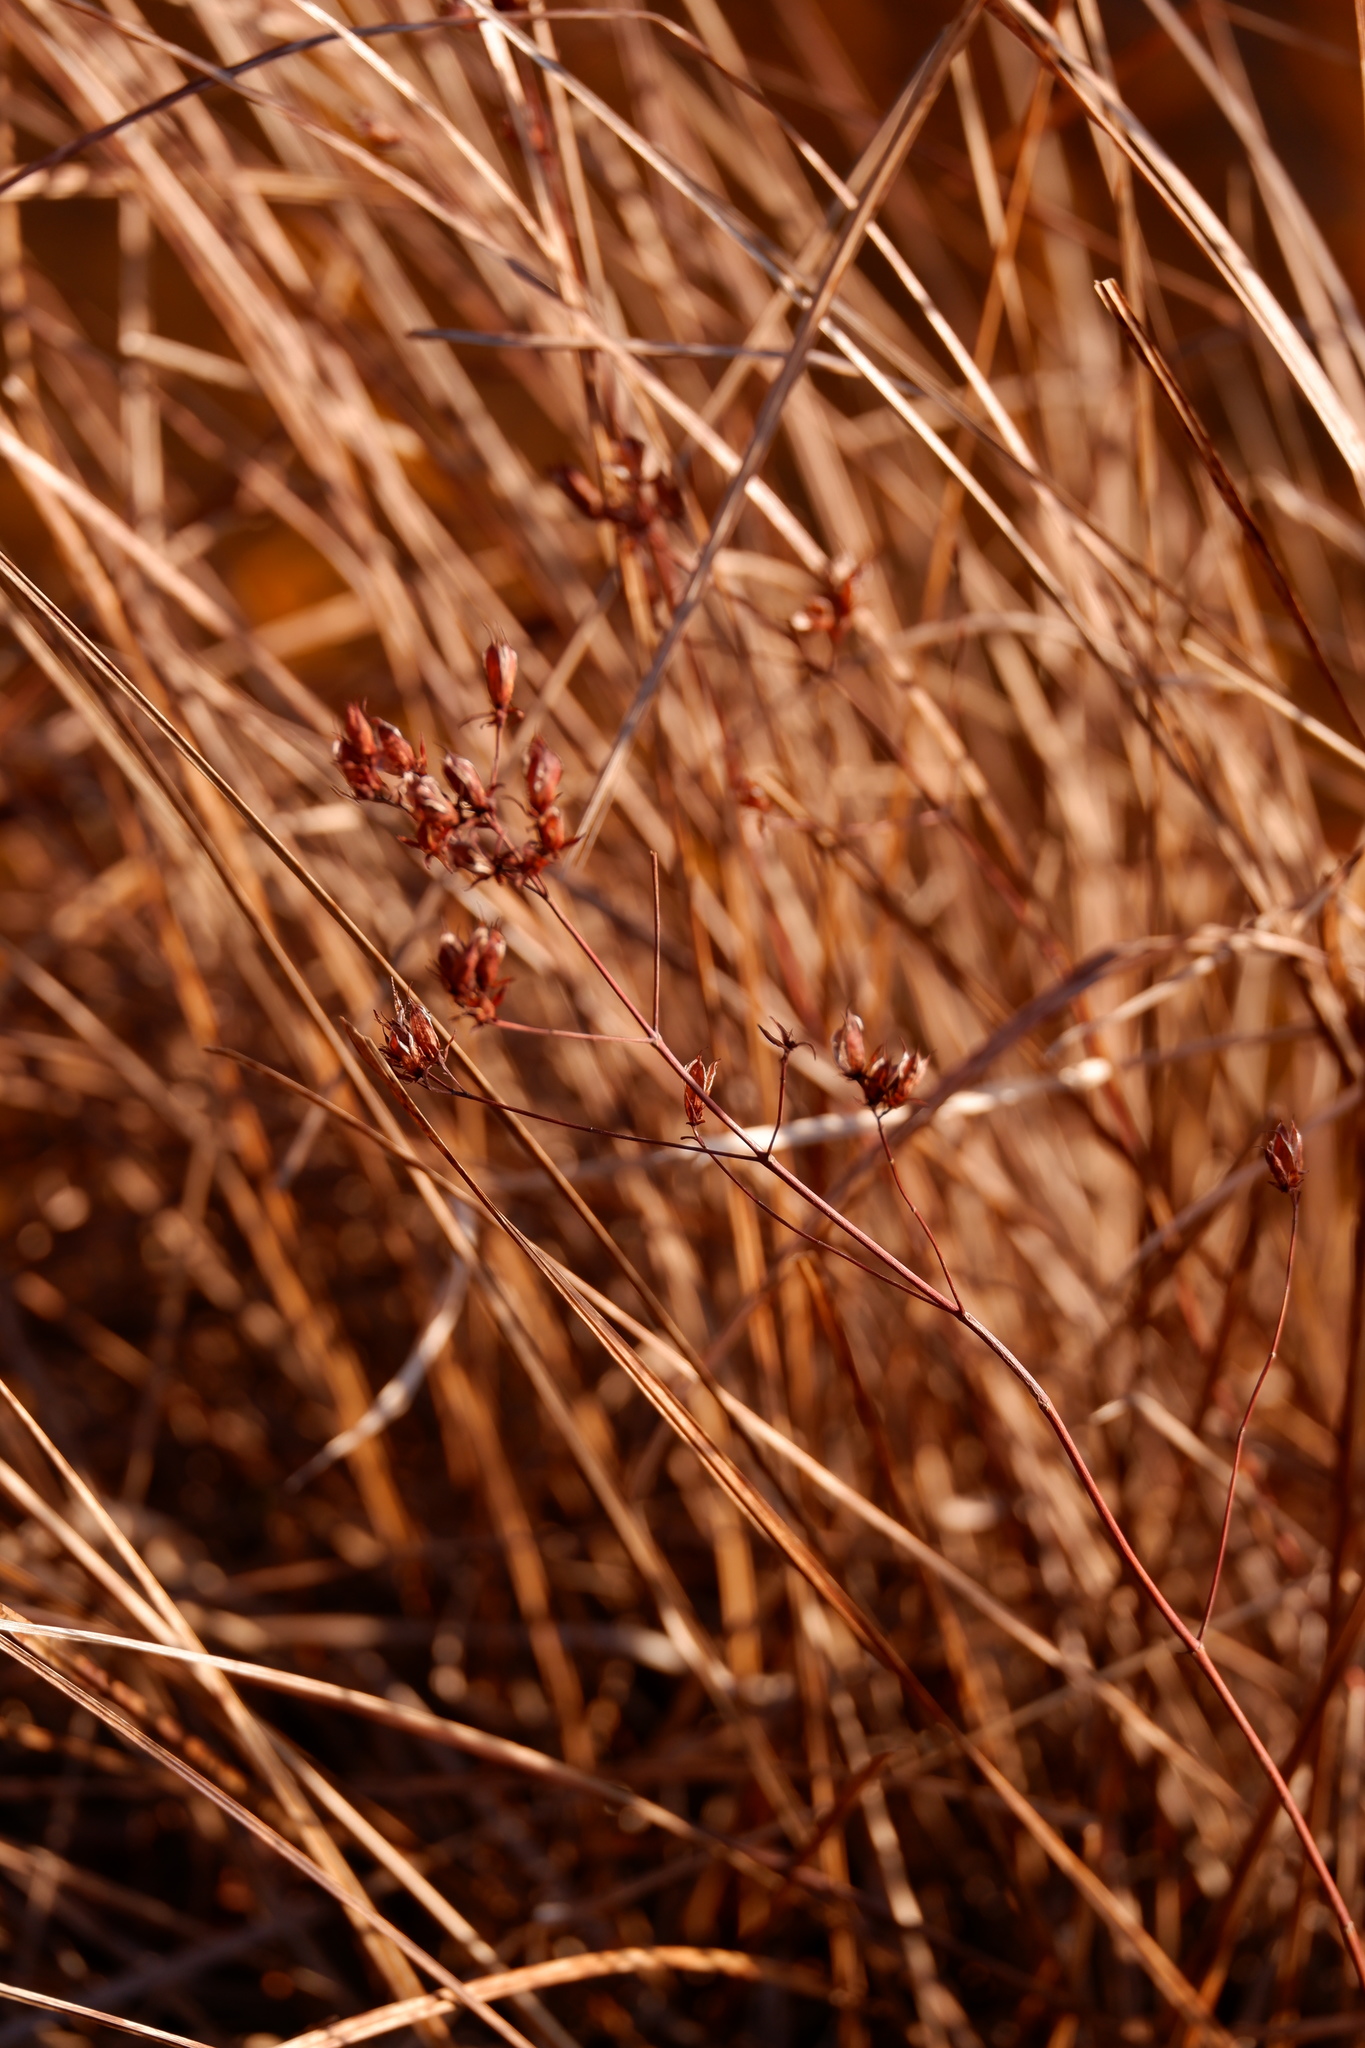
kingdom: Plantae
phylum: Tracheophyta
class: Magnoliopsida
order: Malpighiales
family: Hypericaceae
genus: Triadenum
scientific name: Triadenum virginicum
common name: Marsh st. john's-wort
